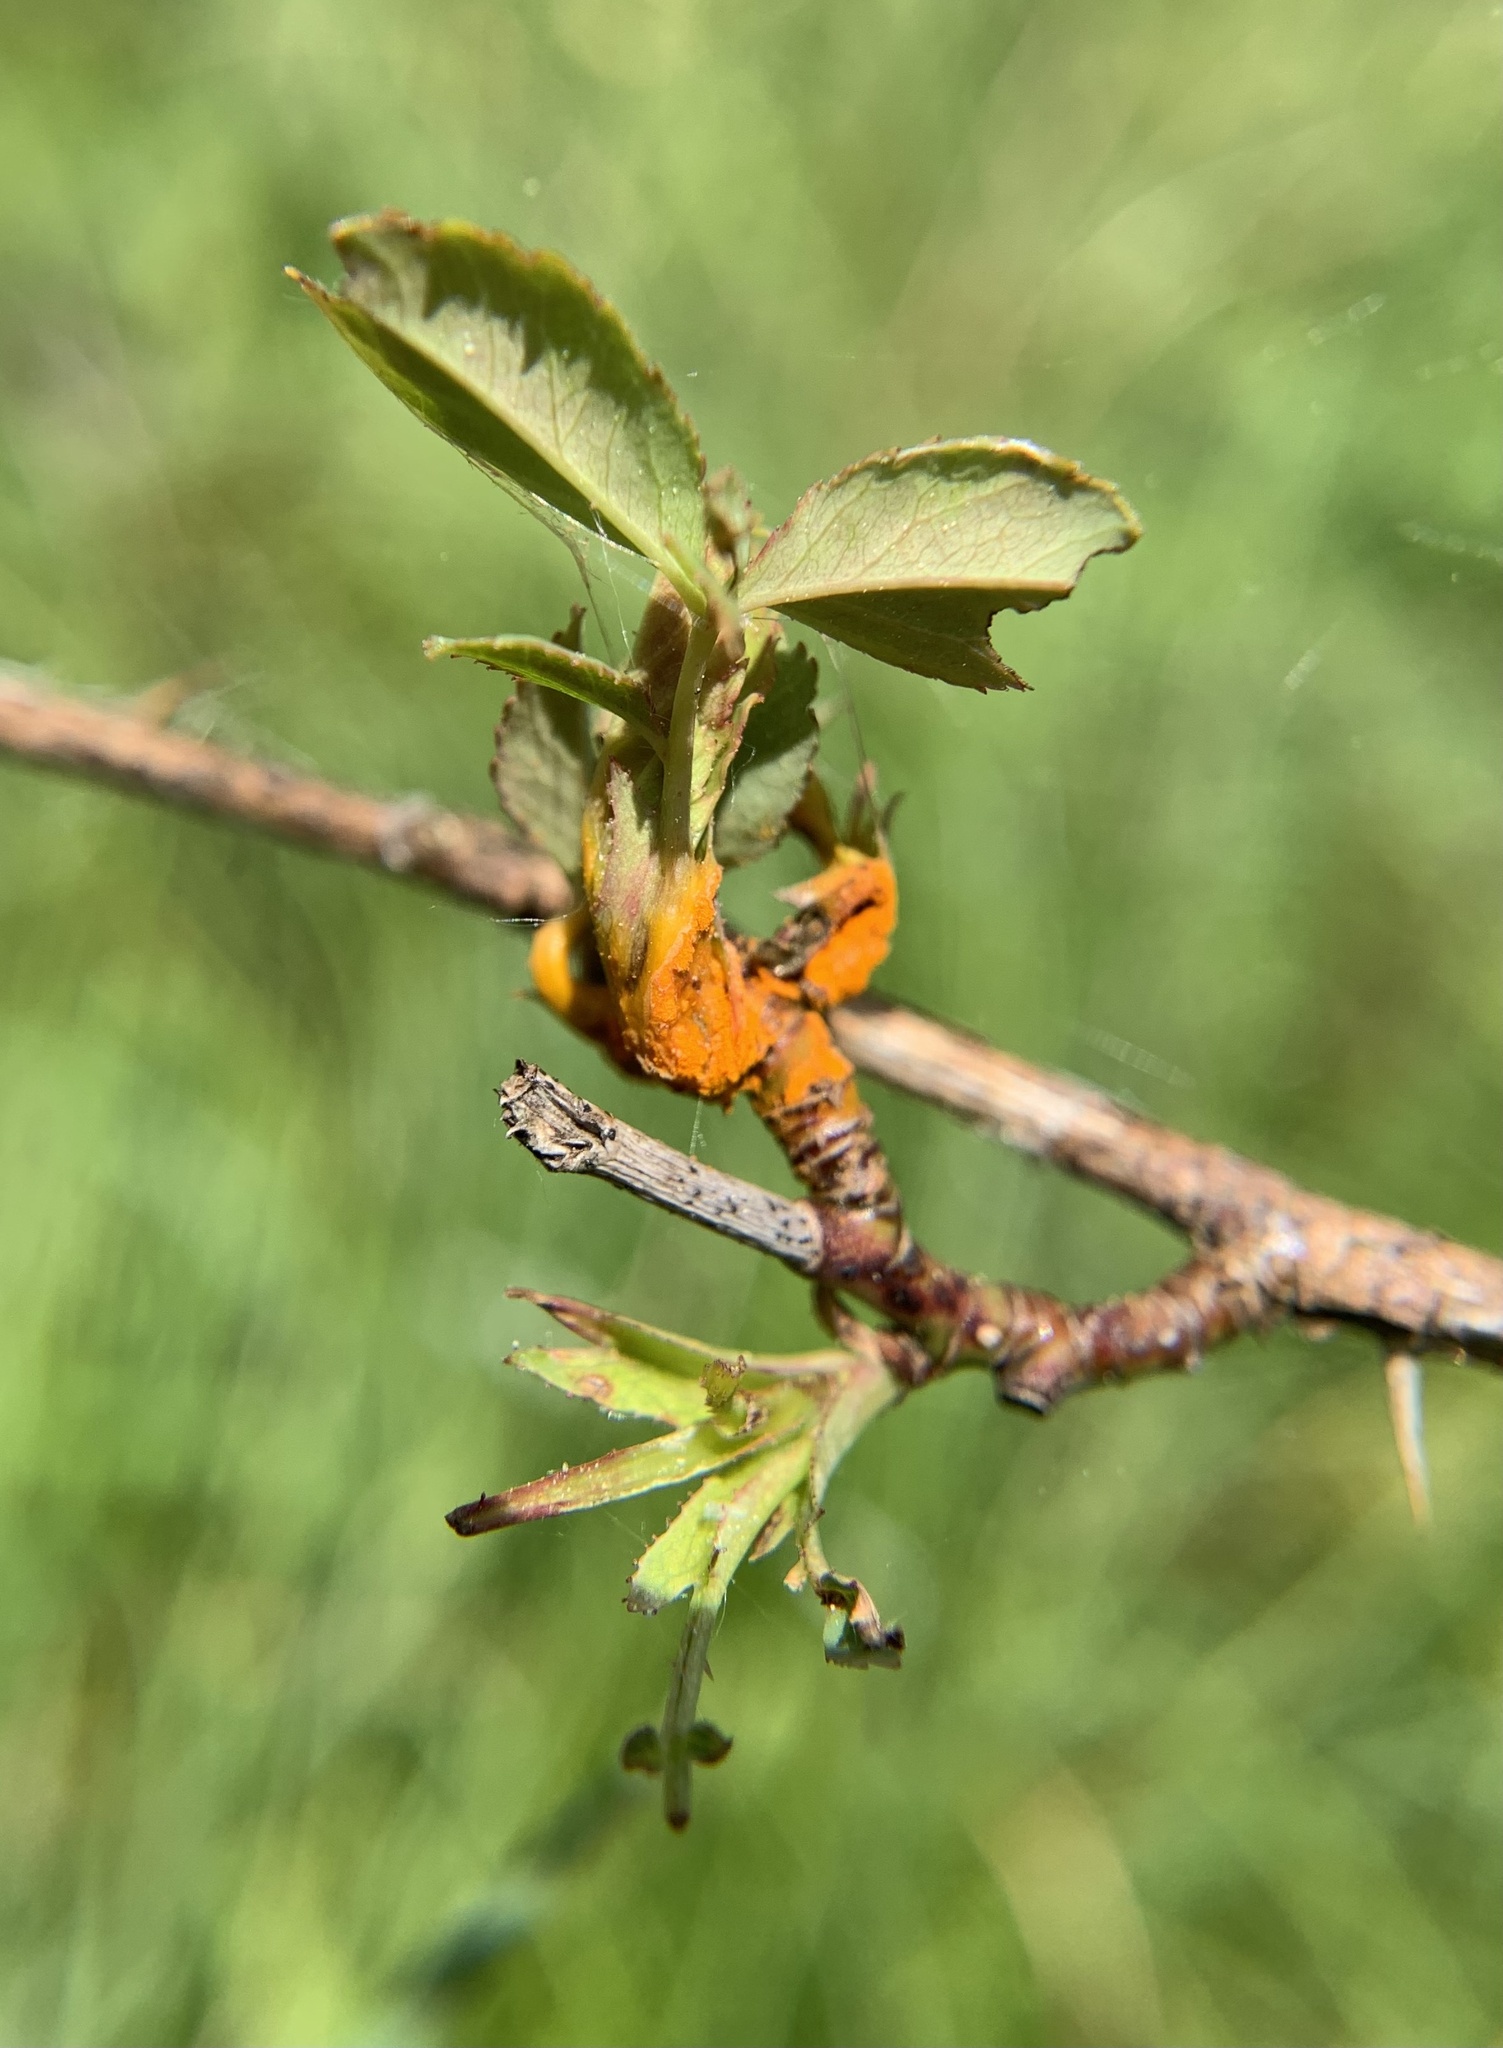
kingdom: Fungi
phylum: Basidiomycota
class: Pucciniomycetes
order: Pucciniales
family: Phragmidiaceae
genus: Phragmidium
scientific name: Phragmidium
